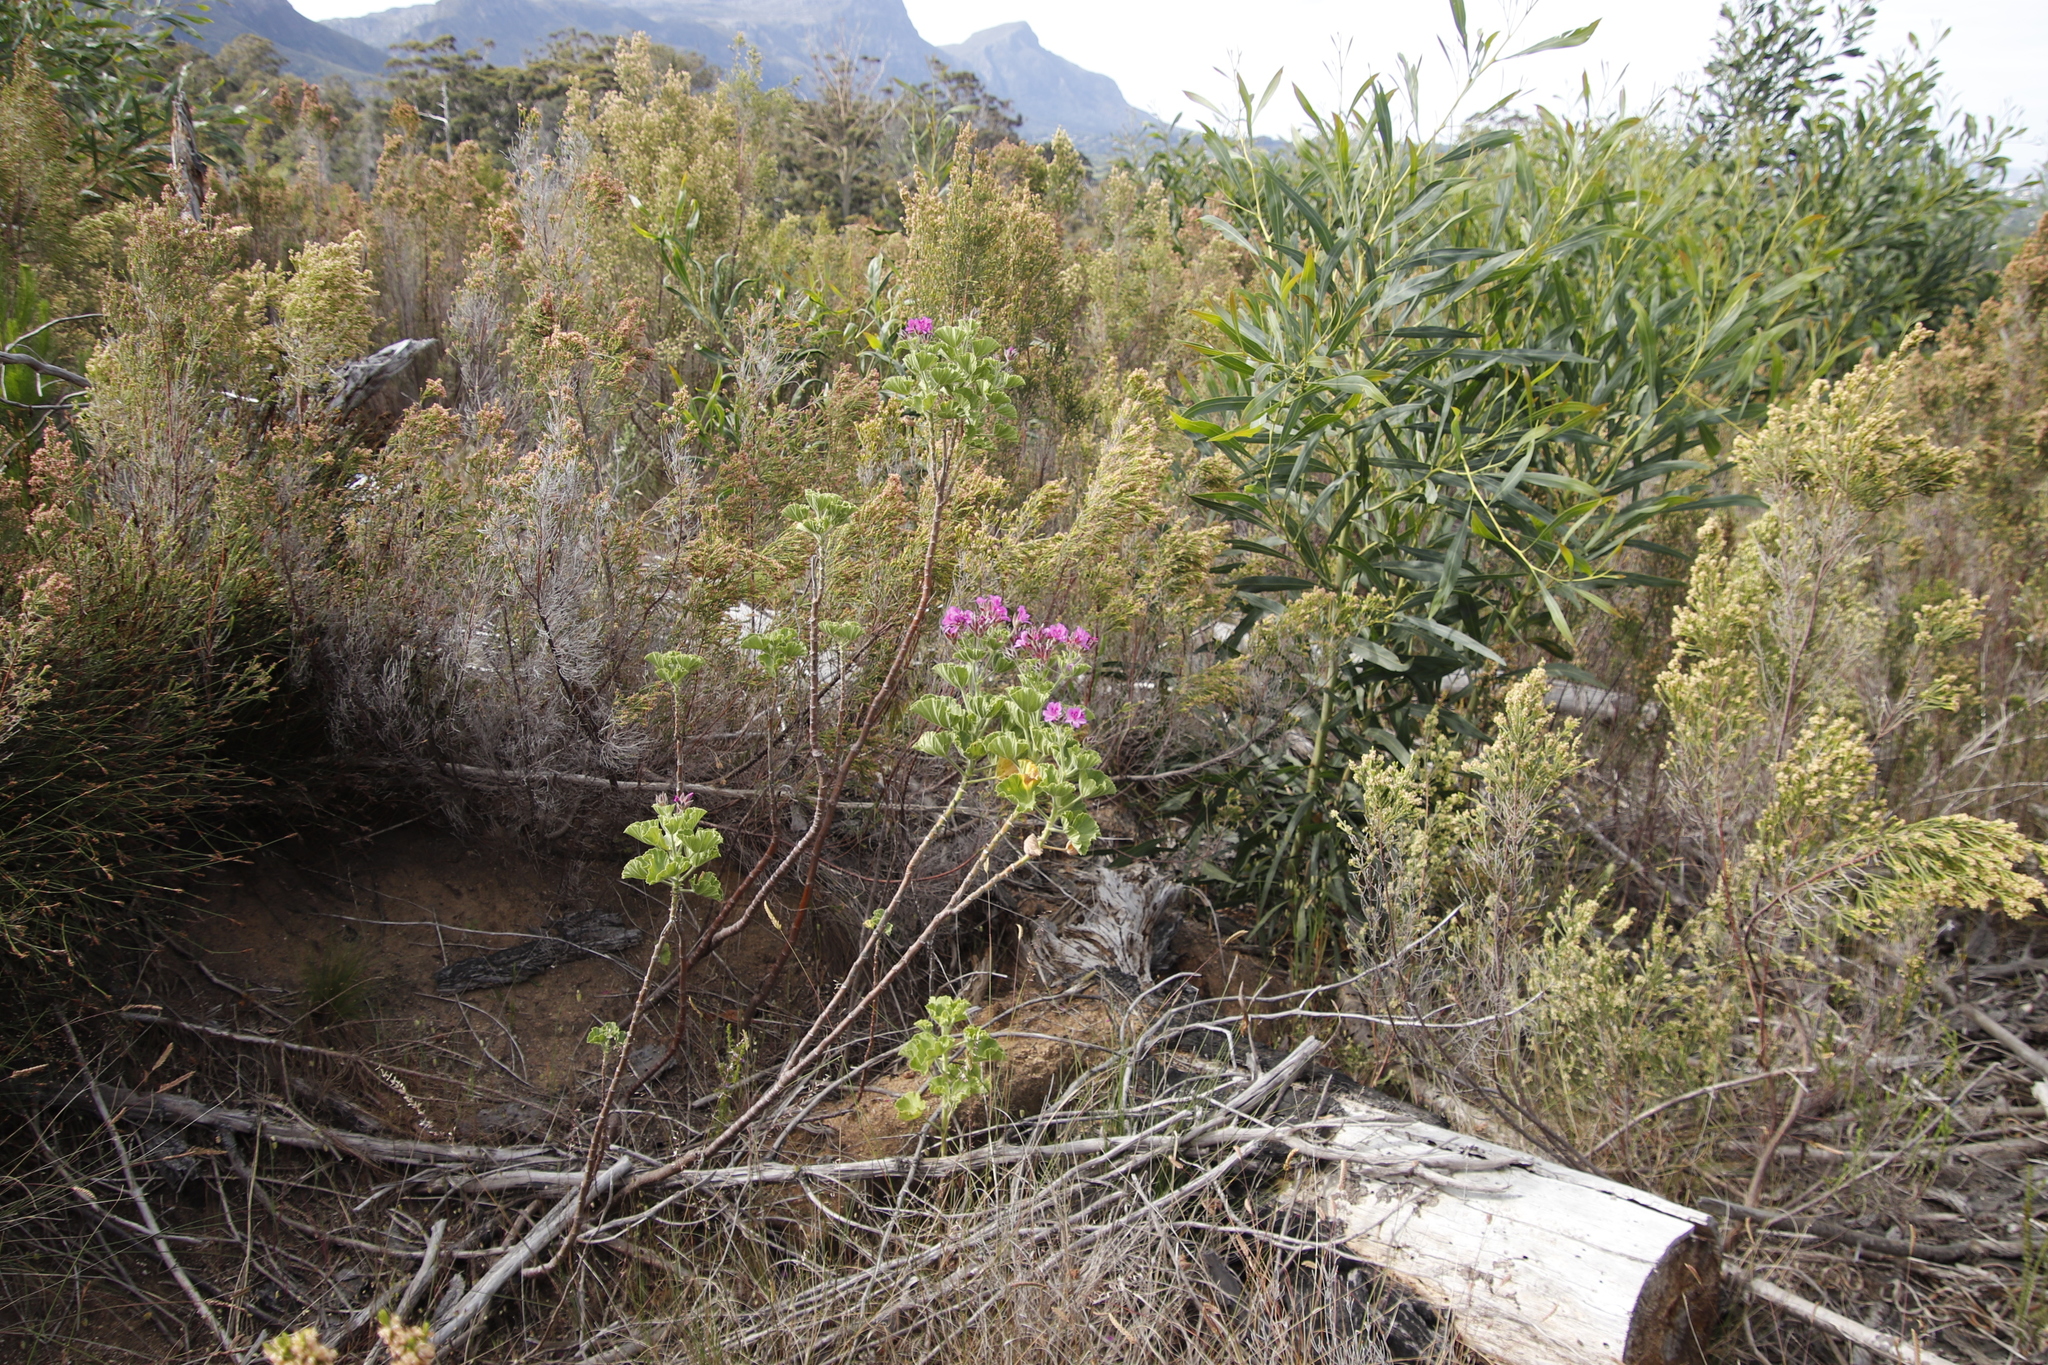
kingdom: Plantae
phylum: Tracheophyta
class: Magnoliopsida
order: Geraniales
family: Geraniaceae
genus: Pelargonium
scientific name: Pelargonium cucullatum
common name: Tree pelargonium
